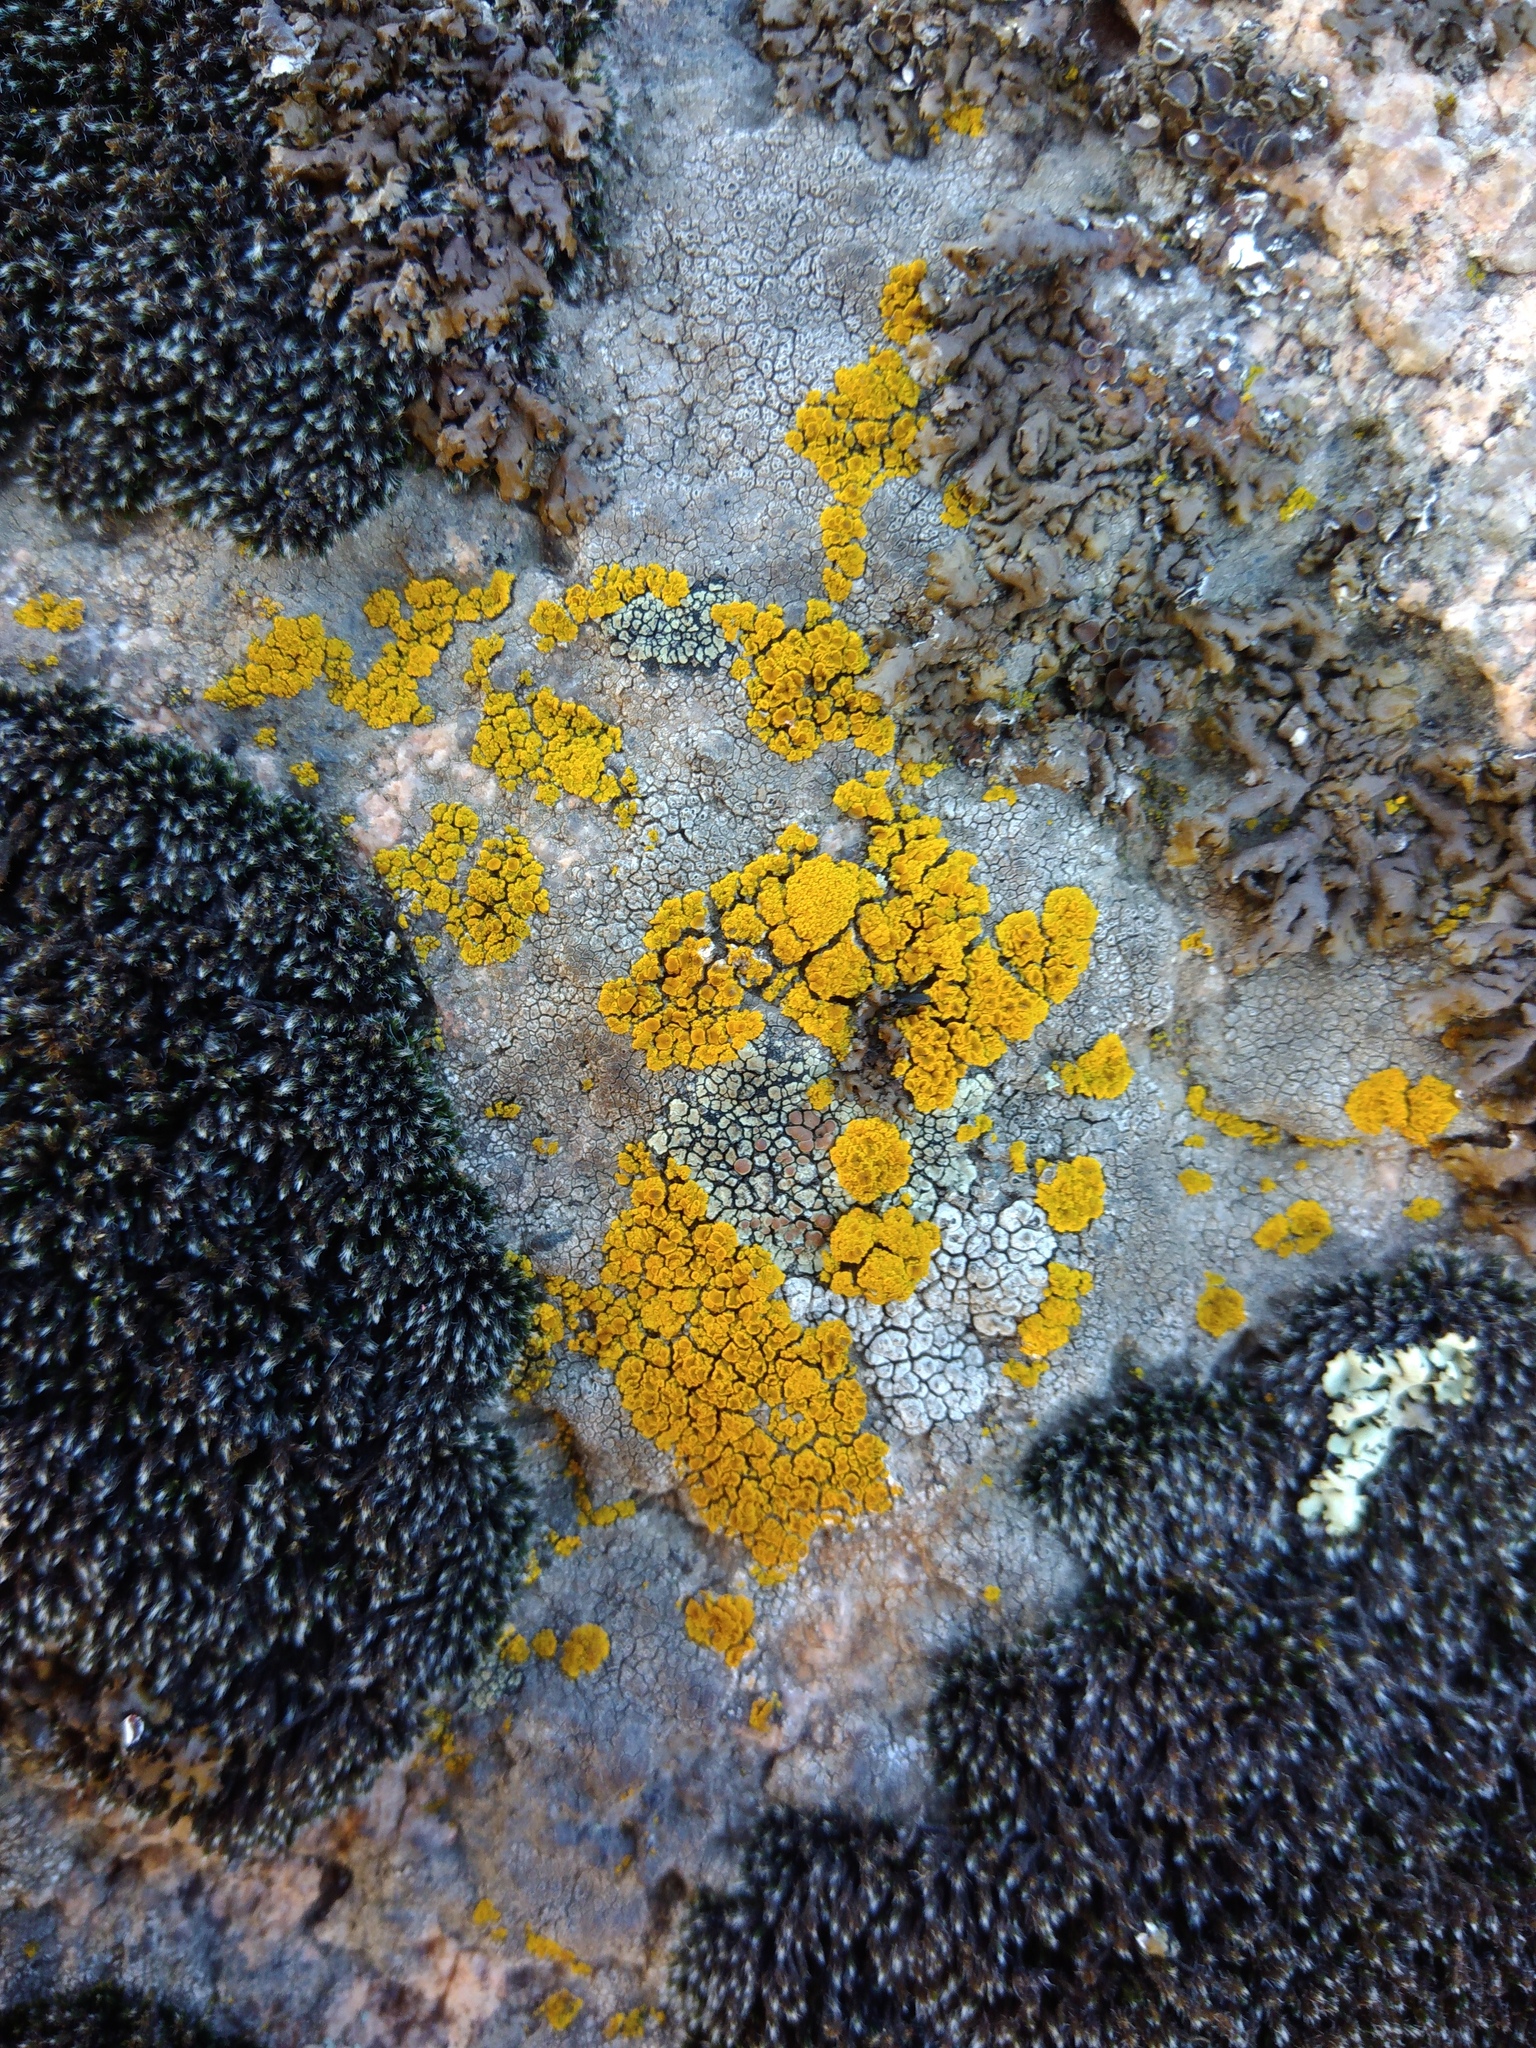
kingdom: Fungi
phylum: Ascomycota
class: Candelariomycetes
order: Candelariales
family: Candelariaceae
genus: Candelariella
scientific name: Candelariella vitellina
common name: Common goldspeck
